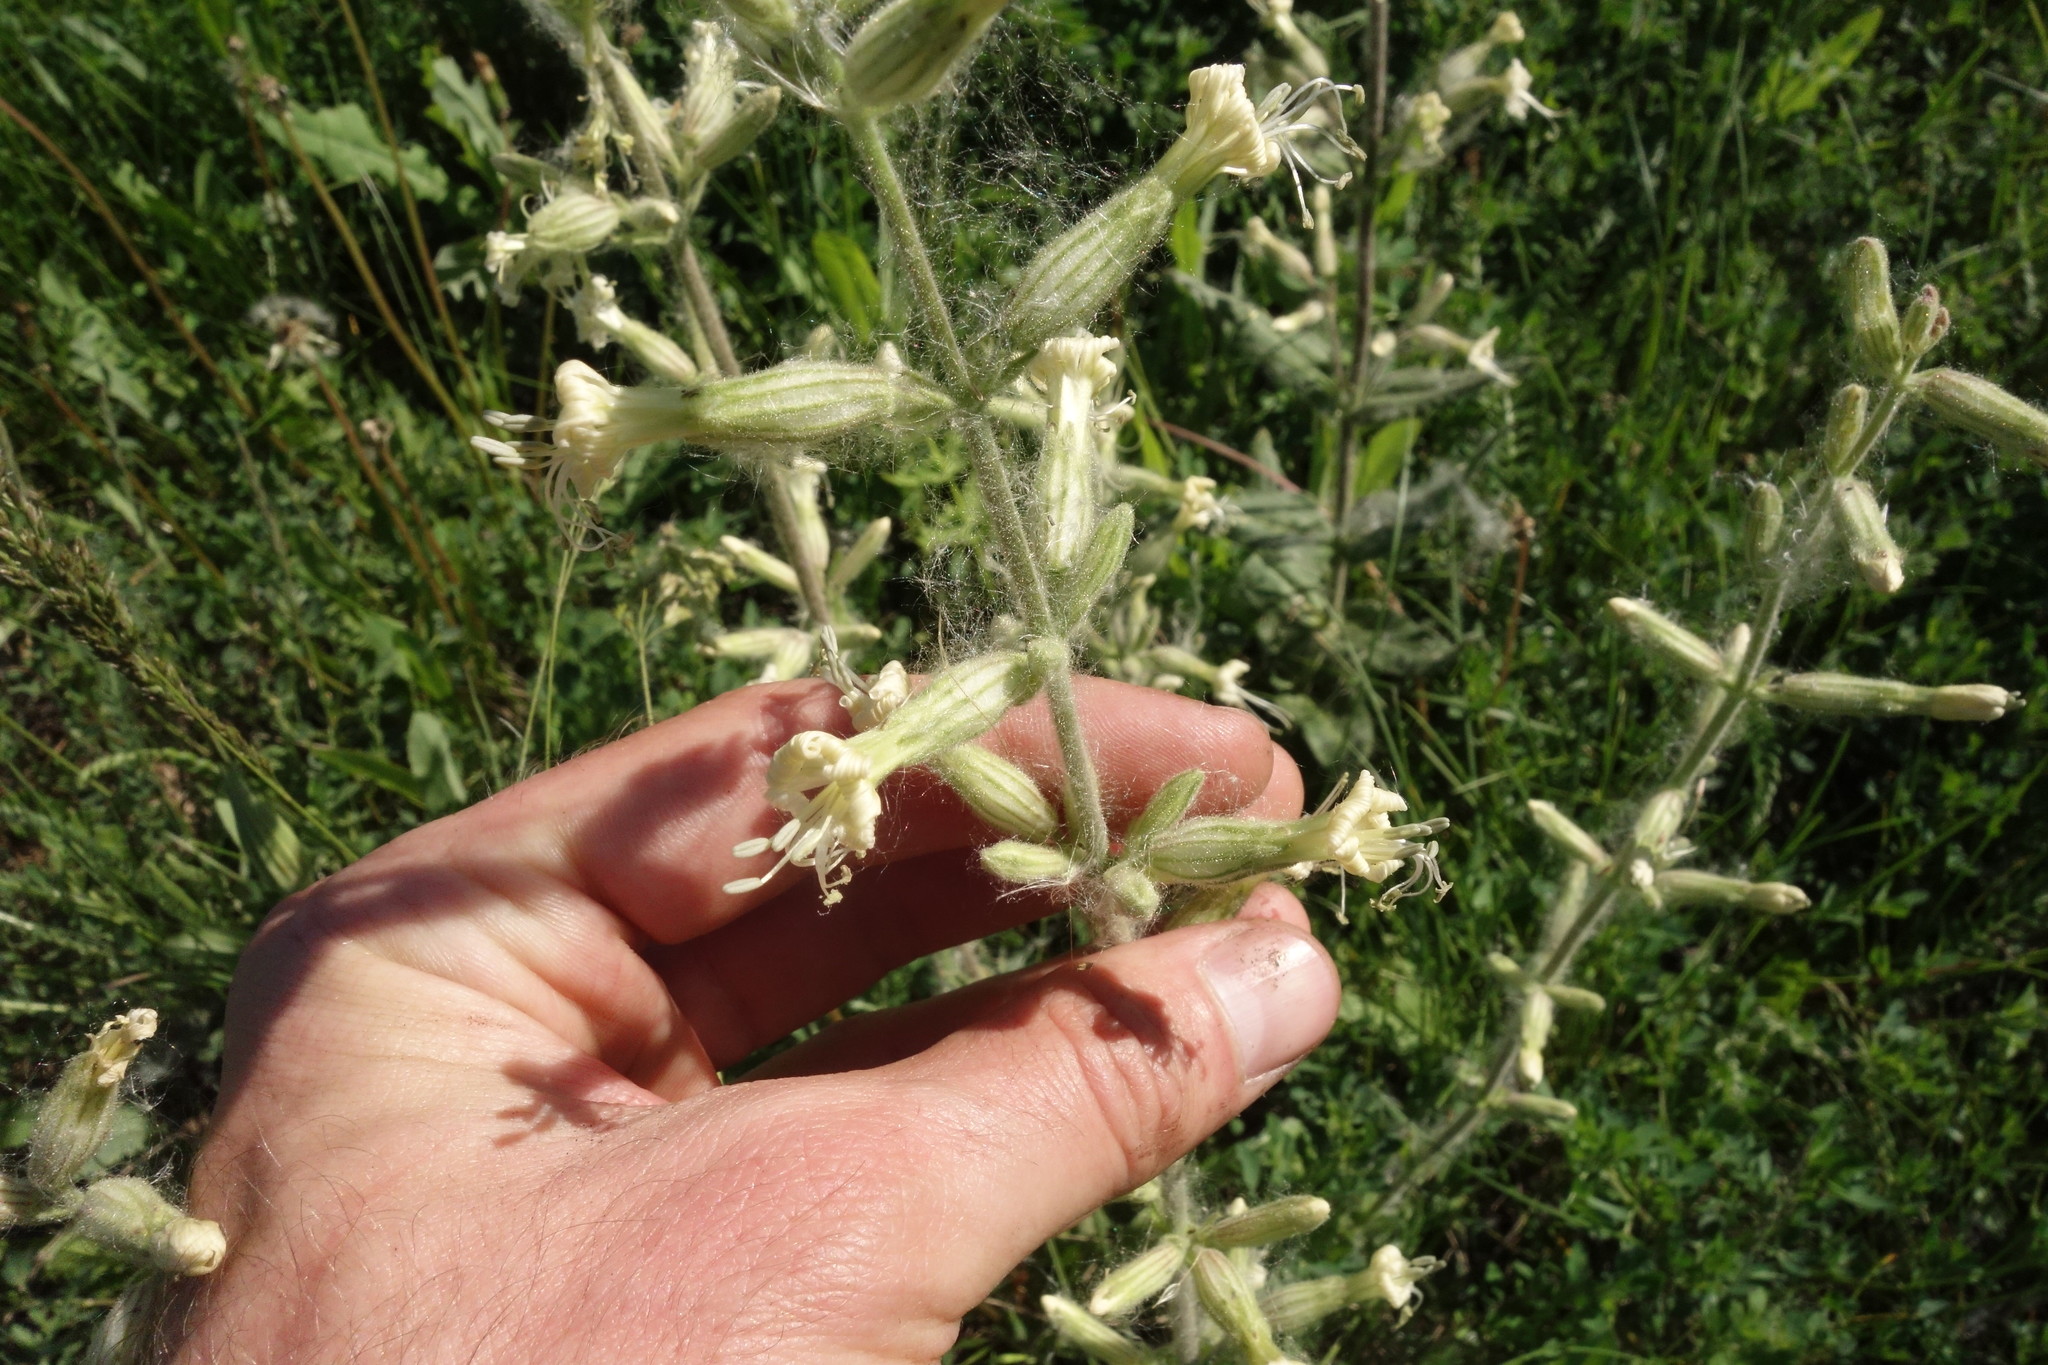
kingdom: Plantae
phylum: Tracheophyta
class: Magnoliopsida
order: Caryophyllales
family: Caryophyllaceae
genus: Silene
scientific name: Silene viscosa
